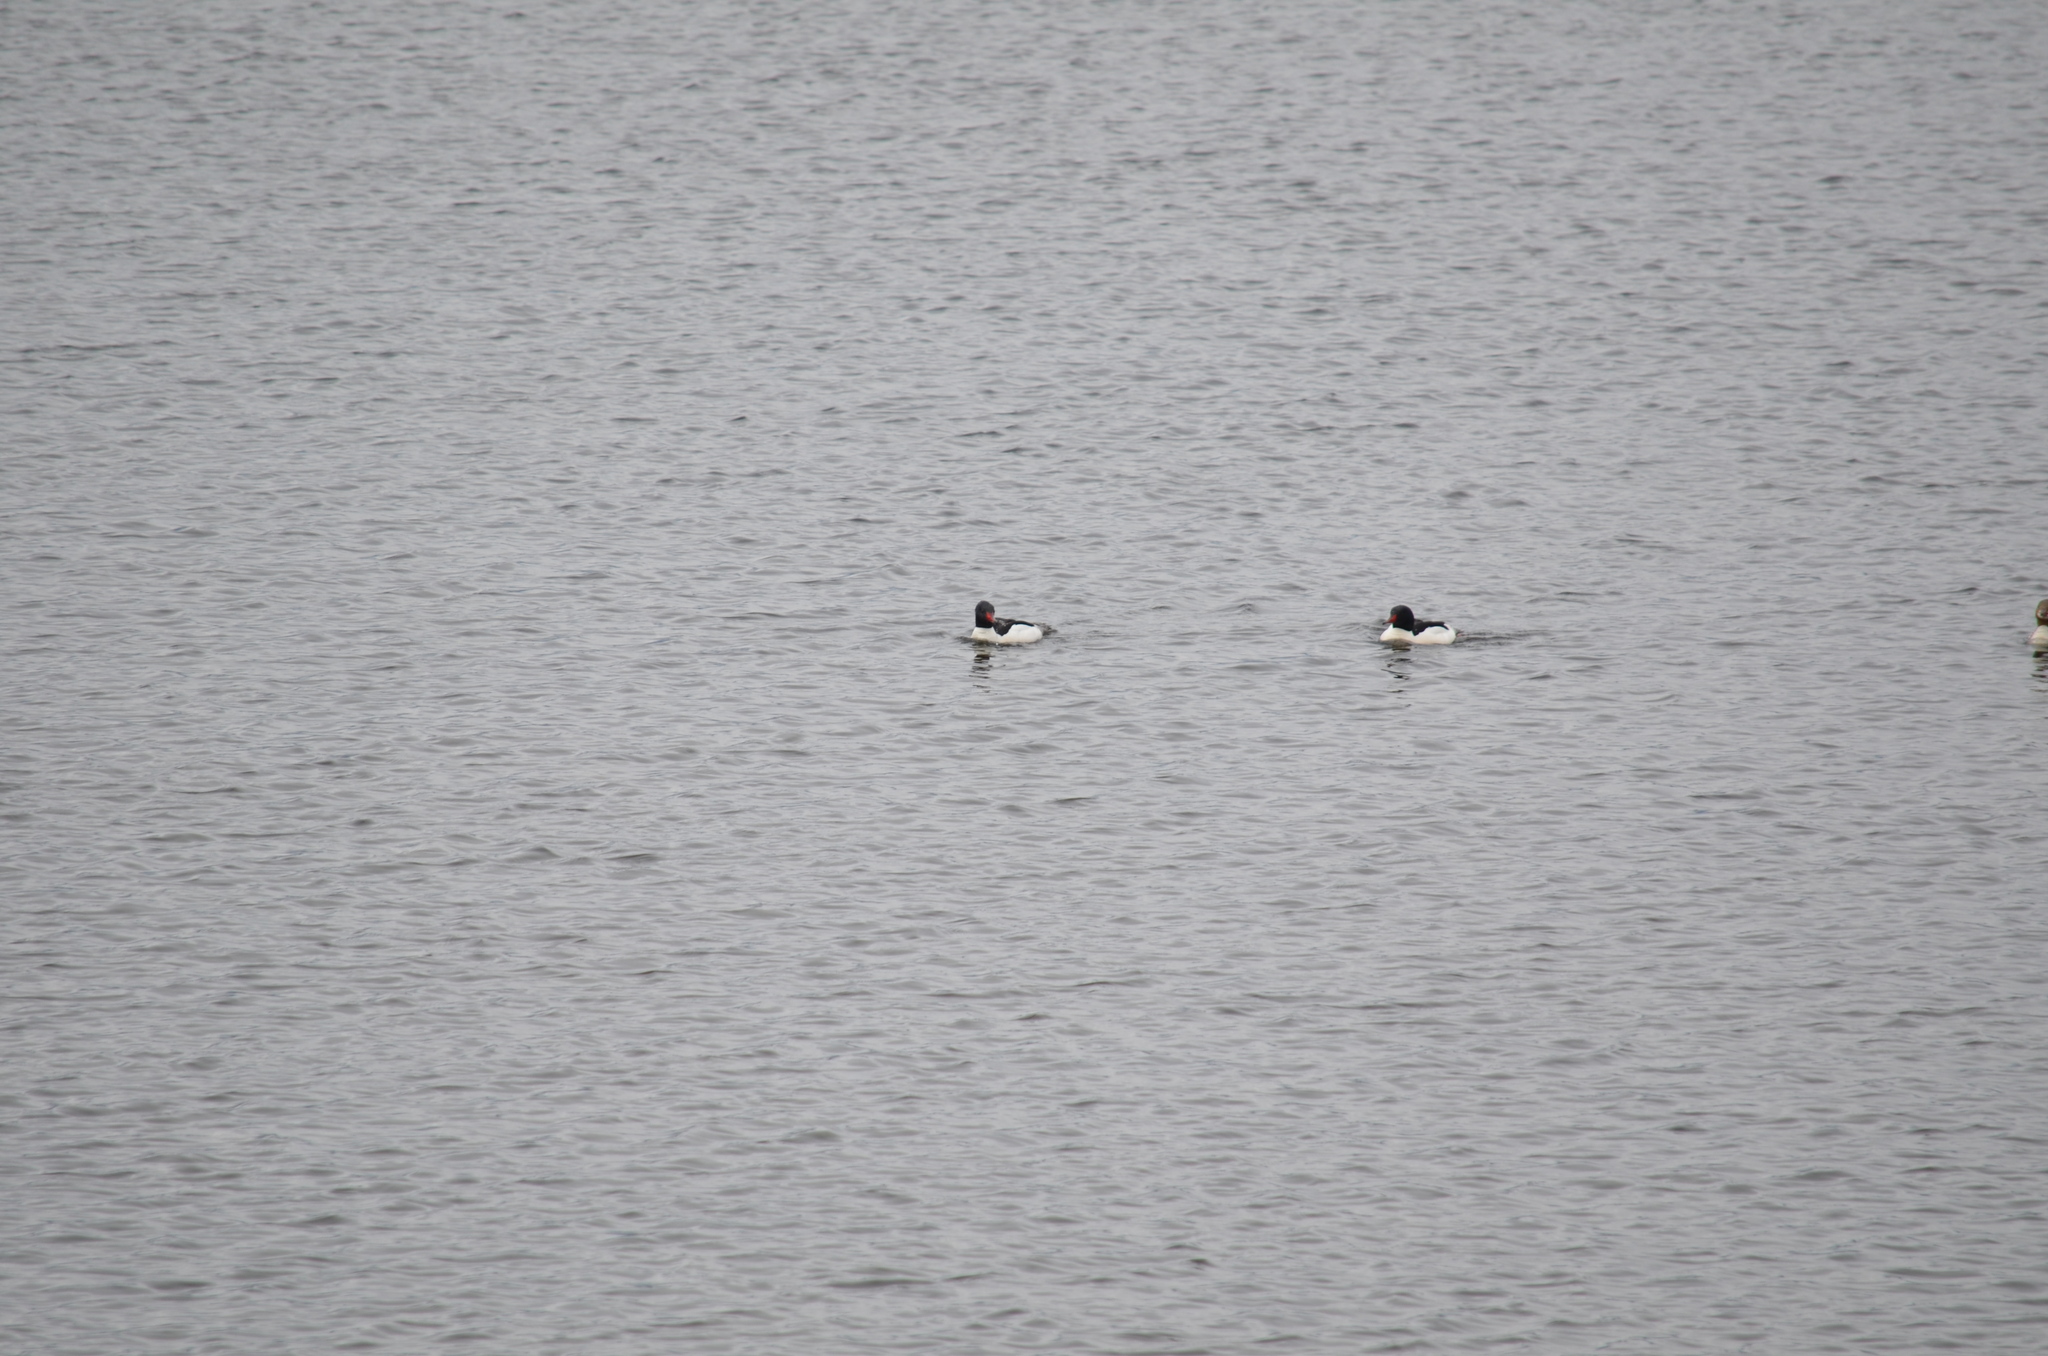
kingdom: Animalia
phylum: Chordata
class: Aves
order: Anseriformes
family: Anatidae
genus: Mergus
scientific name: Mergus merganser
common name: Common merganser
